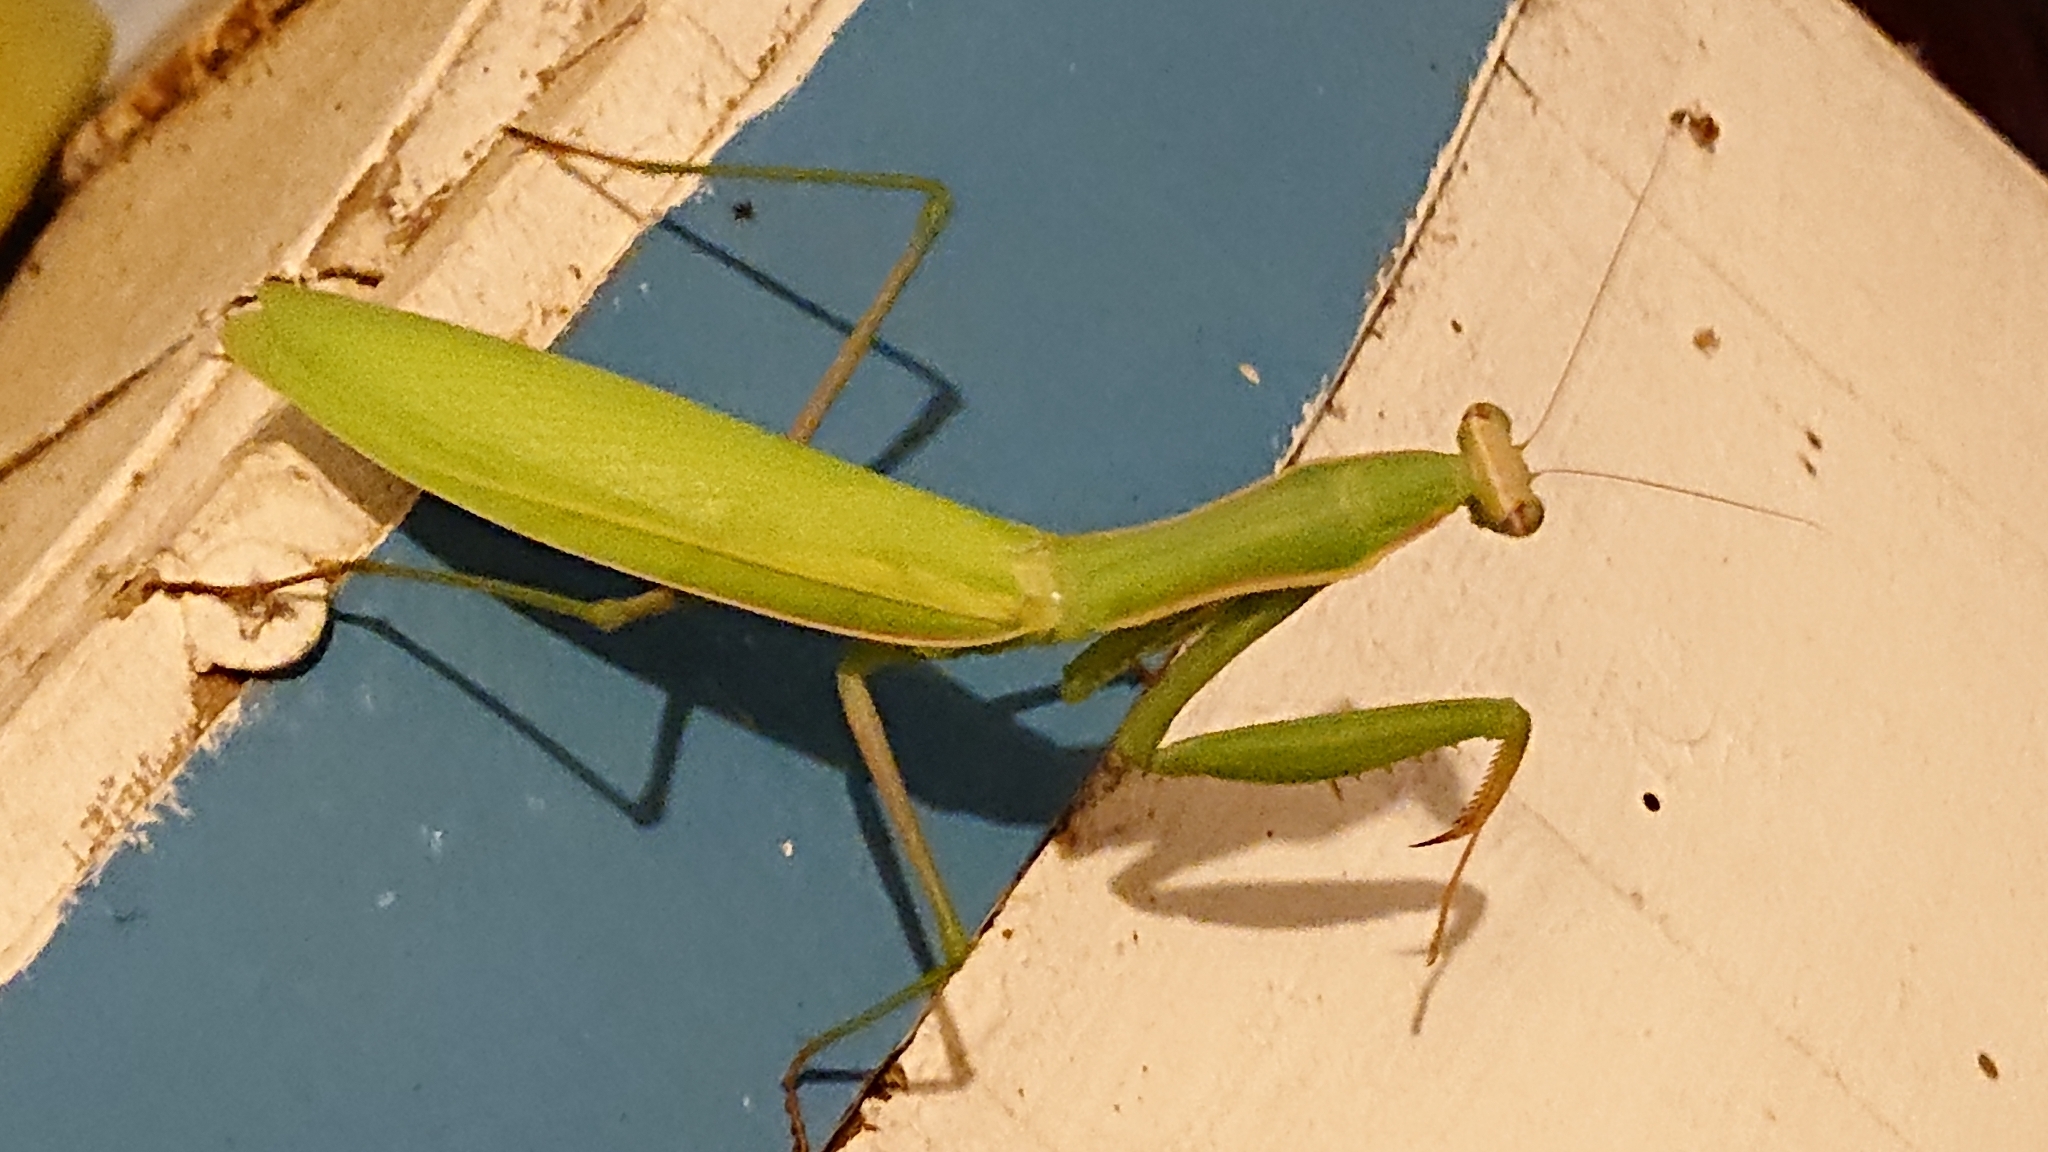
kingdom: Animalia
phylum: Arthropoda
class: Insecta
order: Mantodea
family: Mantidae
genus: Mantis
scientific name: Mantis religiosa
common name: Praying mantis
